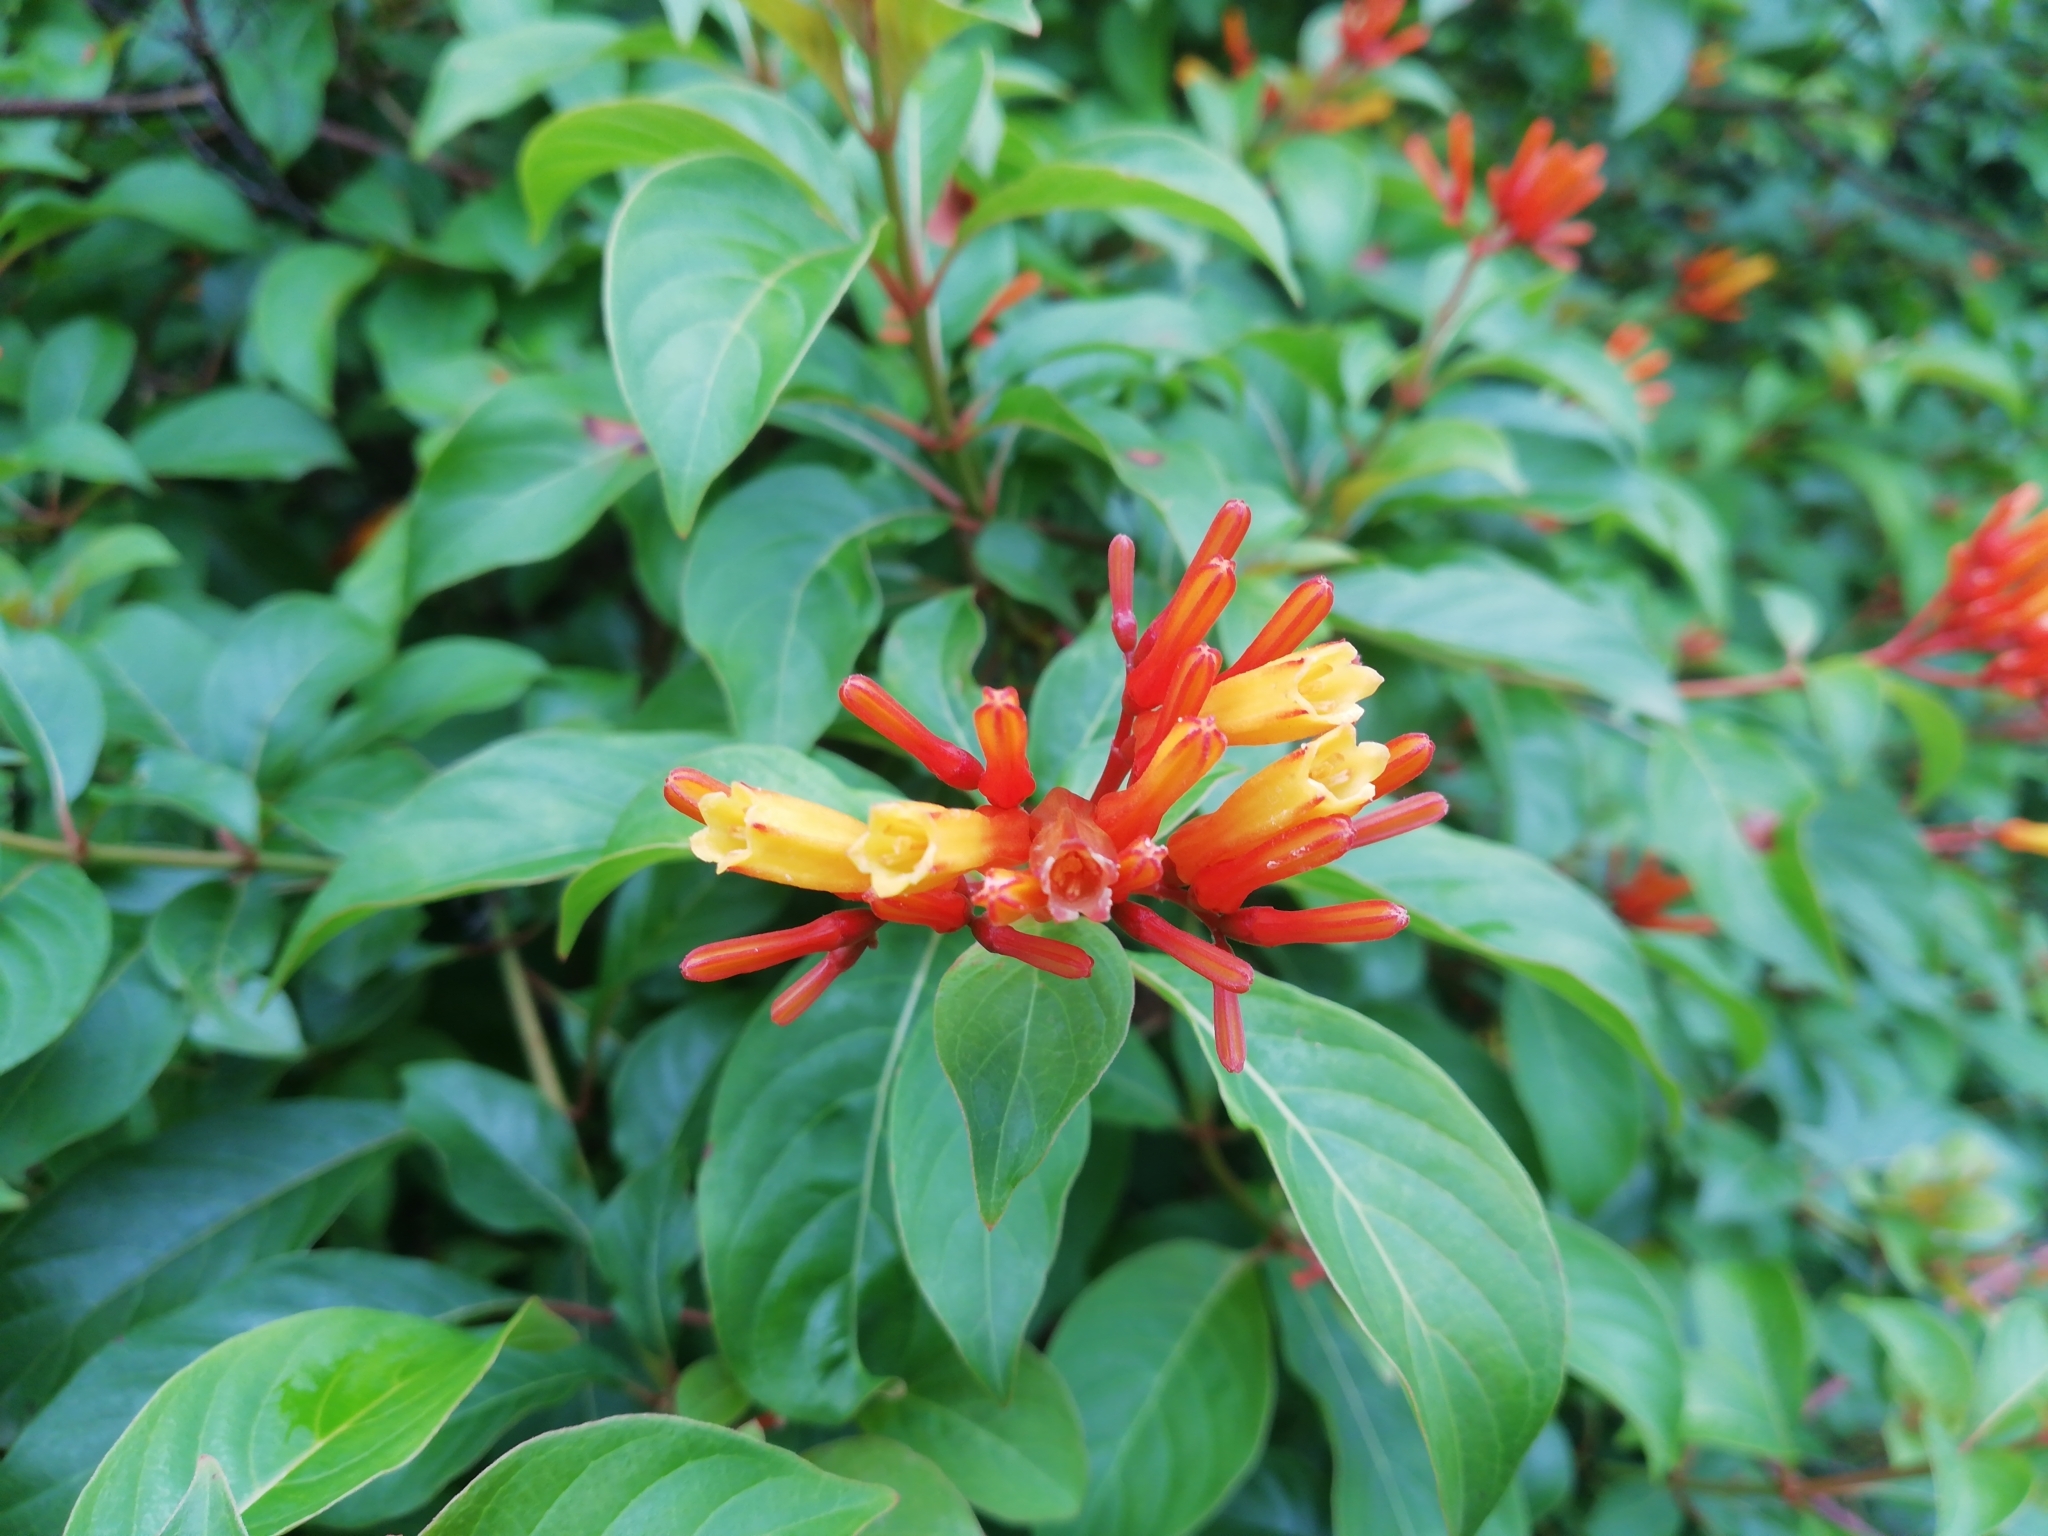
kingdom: Plantae
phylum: Tracheophyta
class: Magnoliopsida
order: Gentianales
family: Rubiaceae
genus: Hamelia
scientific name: Hamelia patens
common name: Redhead
